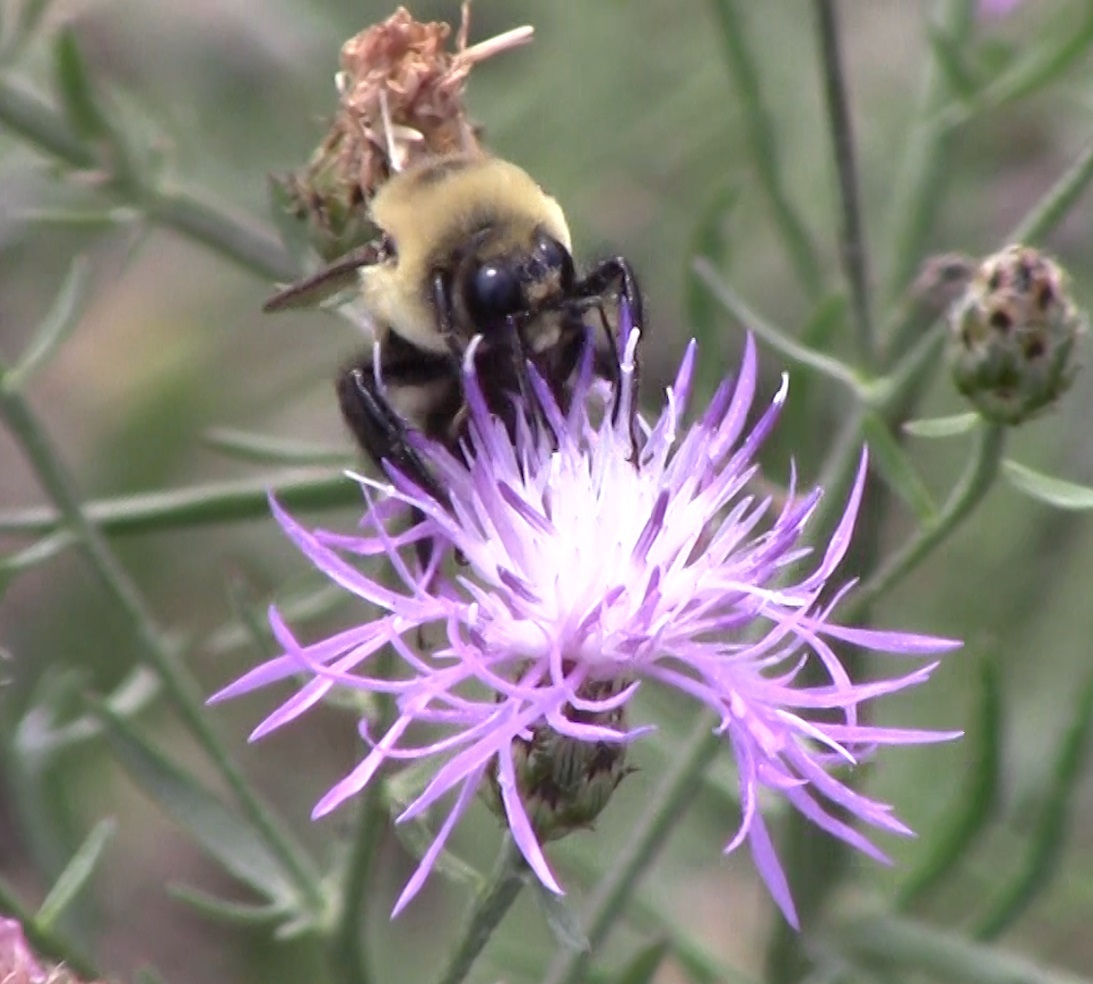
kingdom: Animalia
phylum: Arthropoda
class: Insecta
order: Hymenoptera
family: Apidae
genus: Bombus
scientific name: Bombus griseocollis
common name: Brown-belted bumble bee
